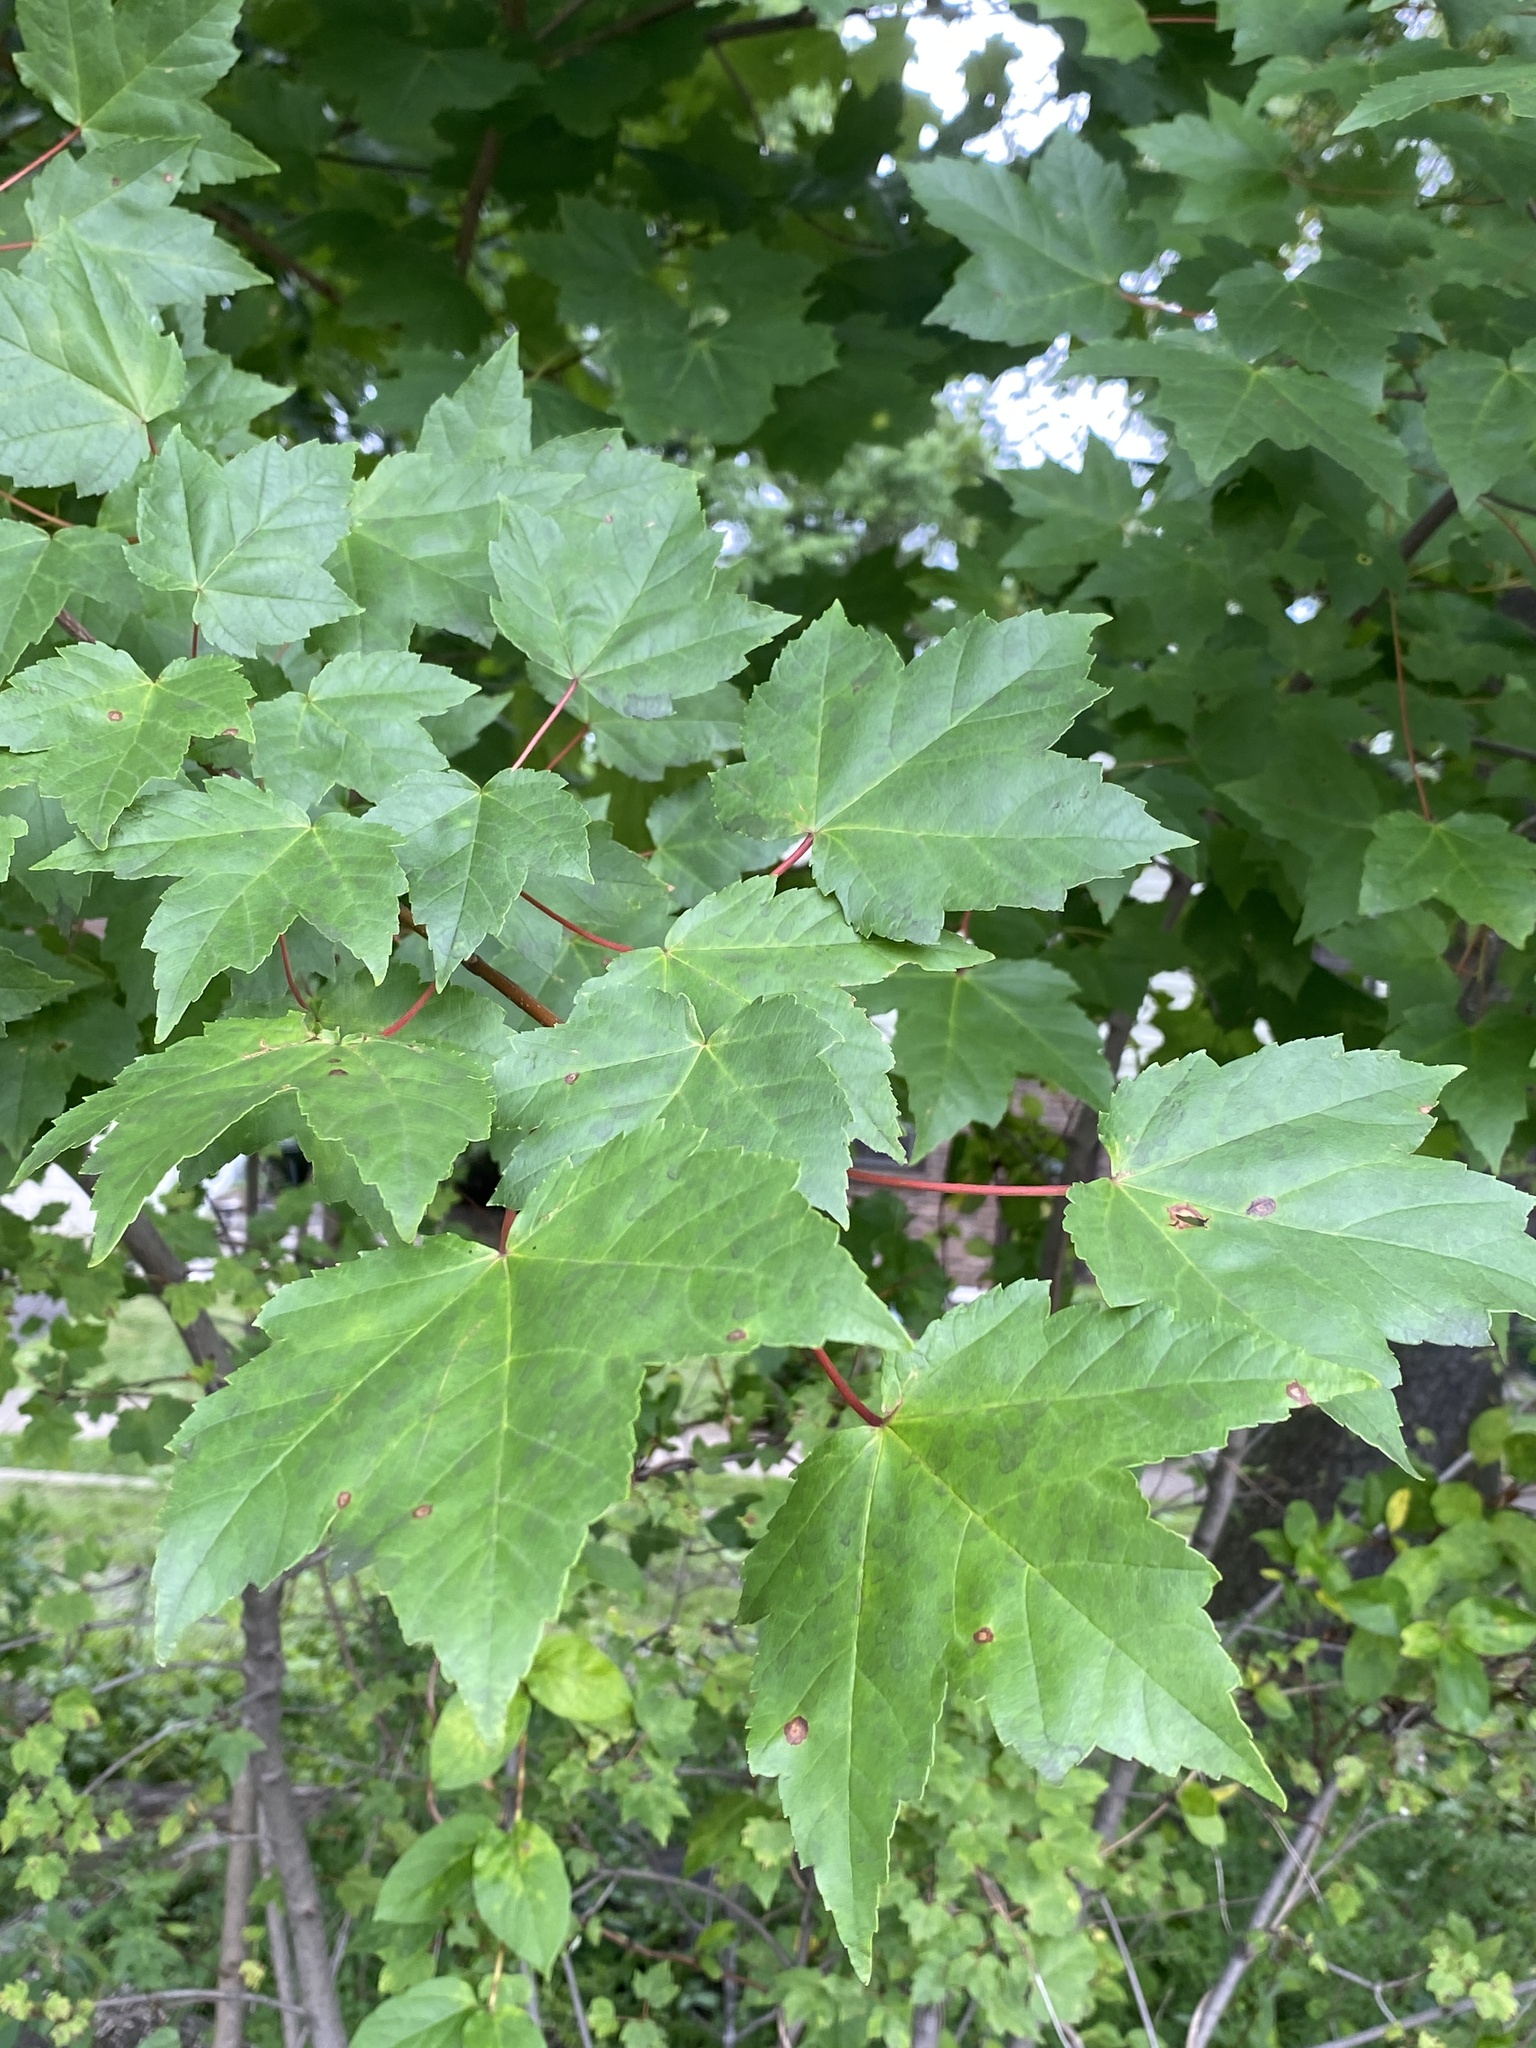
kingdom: Plantae
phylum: Tracheophyta
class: Magnoliopsida
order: Sapindales
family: Sapindaceae
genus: Acer
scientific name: Acer rubrum
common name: Red maple
